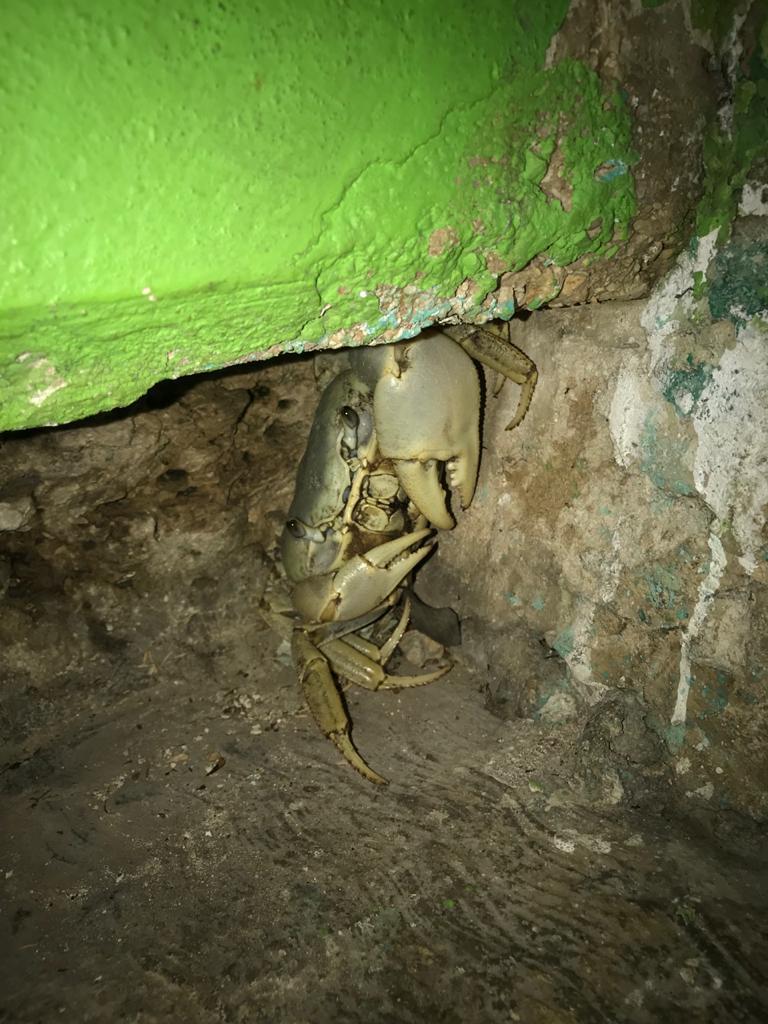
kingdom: Animalia
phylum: Arthropoda
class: Malacostraca
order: Decapoda
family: Gecarcinidae
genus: Cardisoma
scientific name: Cardisoma guanhumi
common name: Great land crab
